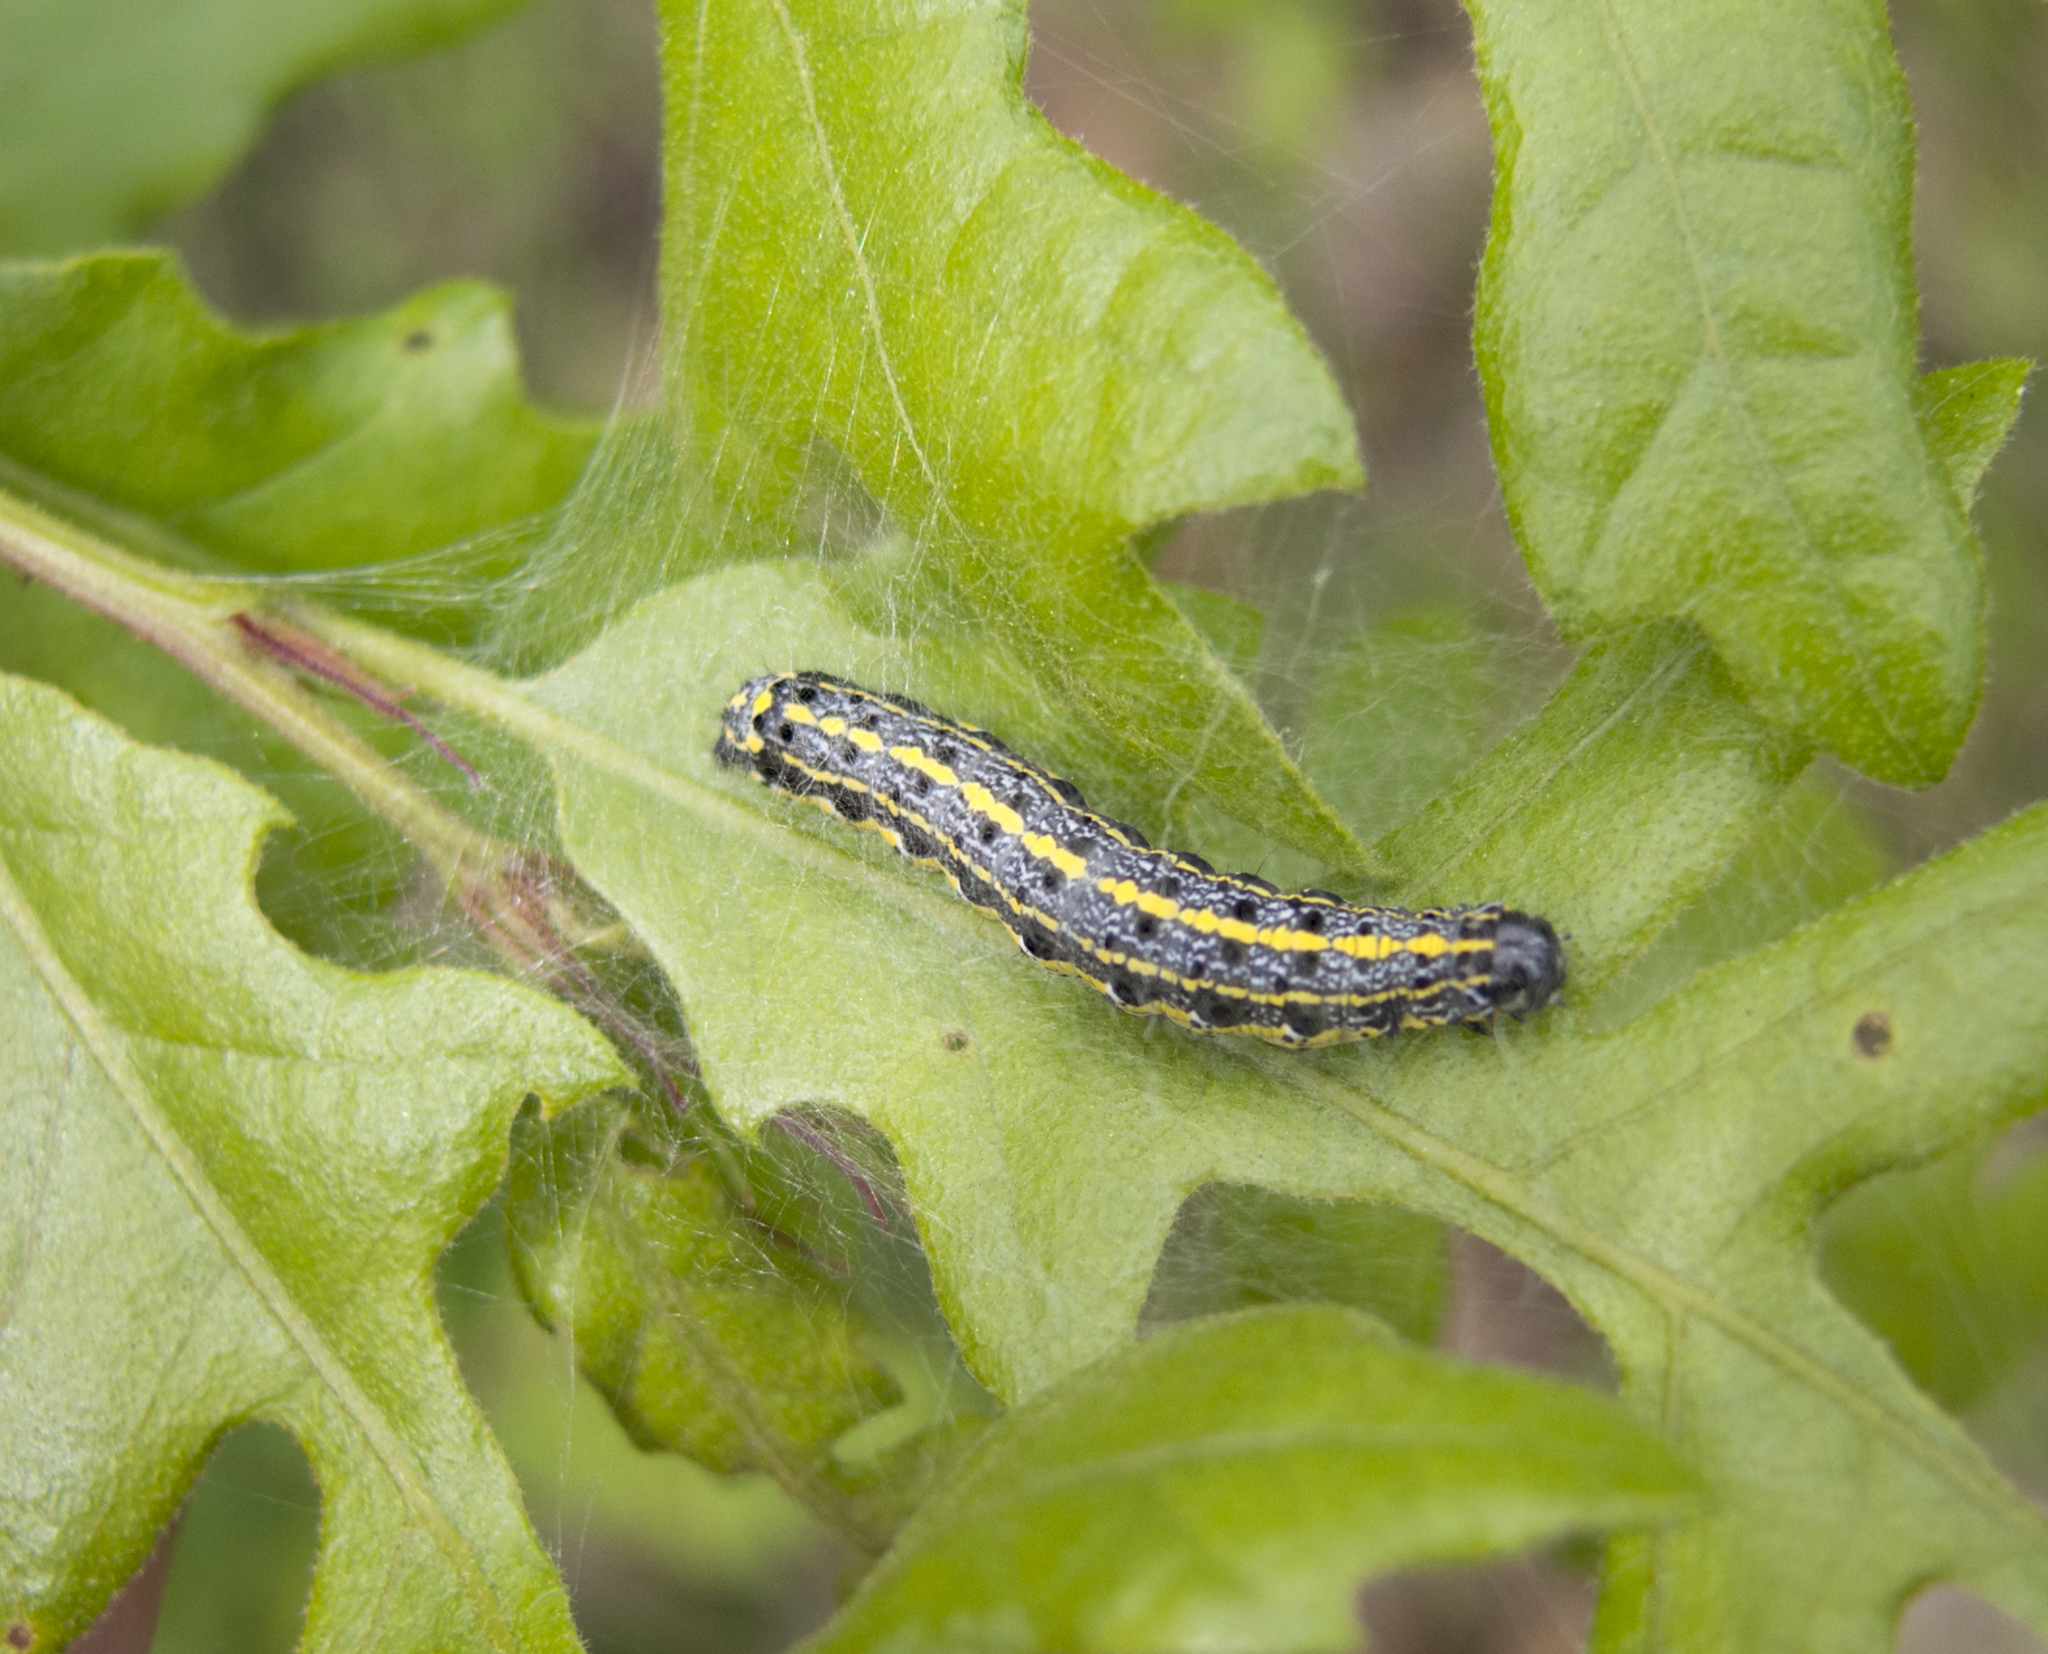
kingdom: Animalia
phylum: Arthropoda
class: Insecta
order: Lepidoptera
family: Noctuidae
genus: Orthosia
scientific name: Orthosia miniosa
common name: Blossom underwing
